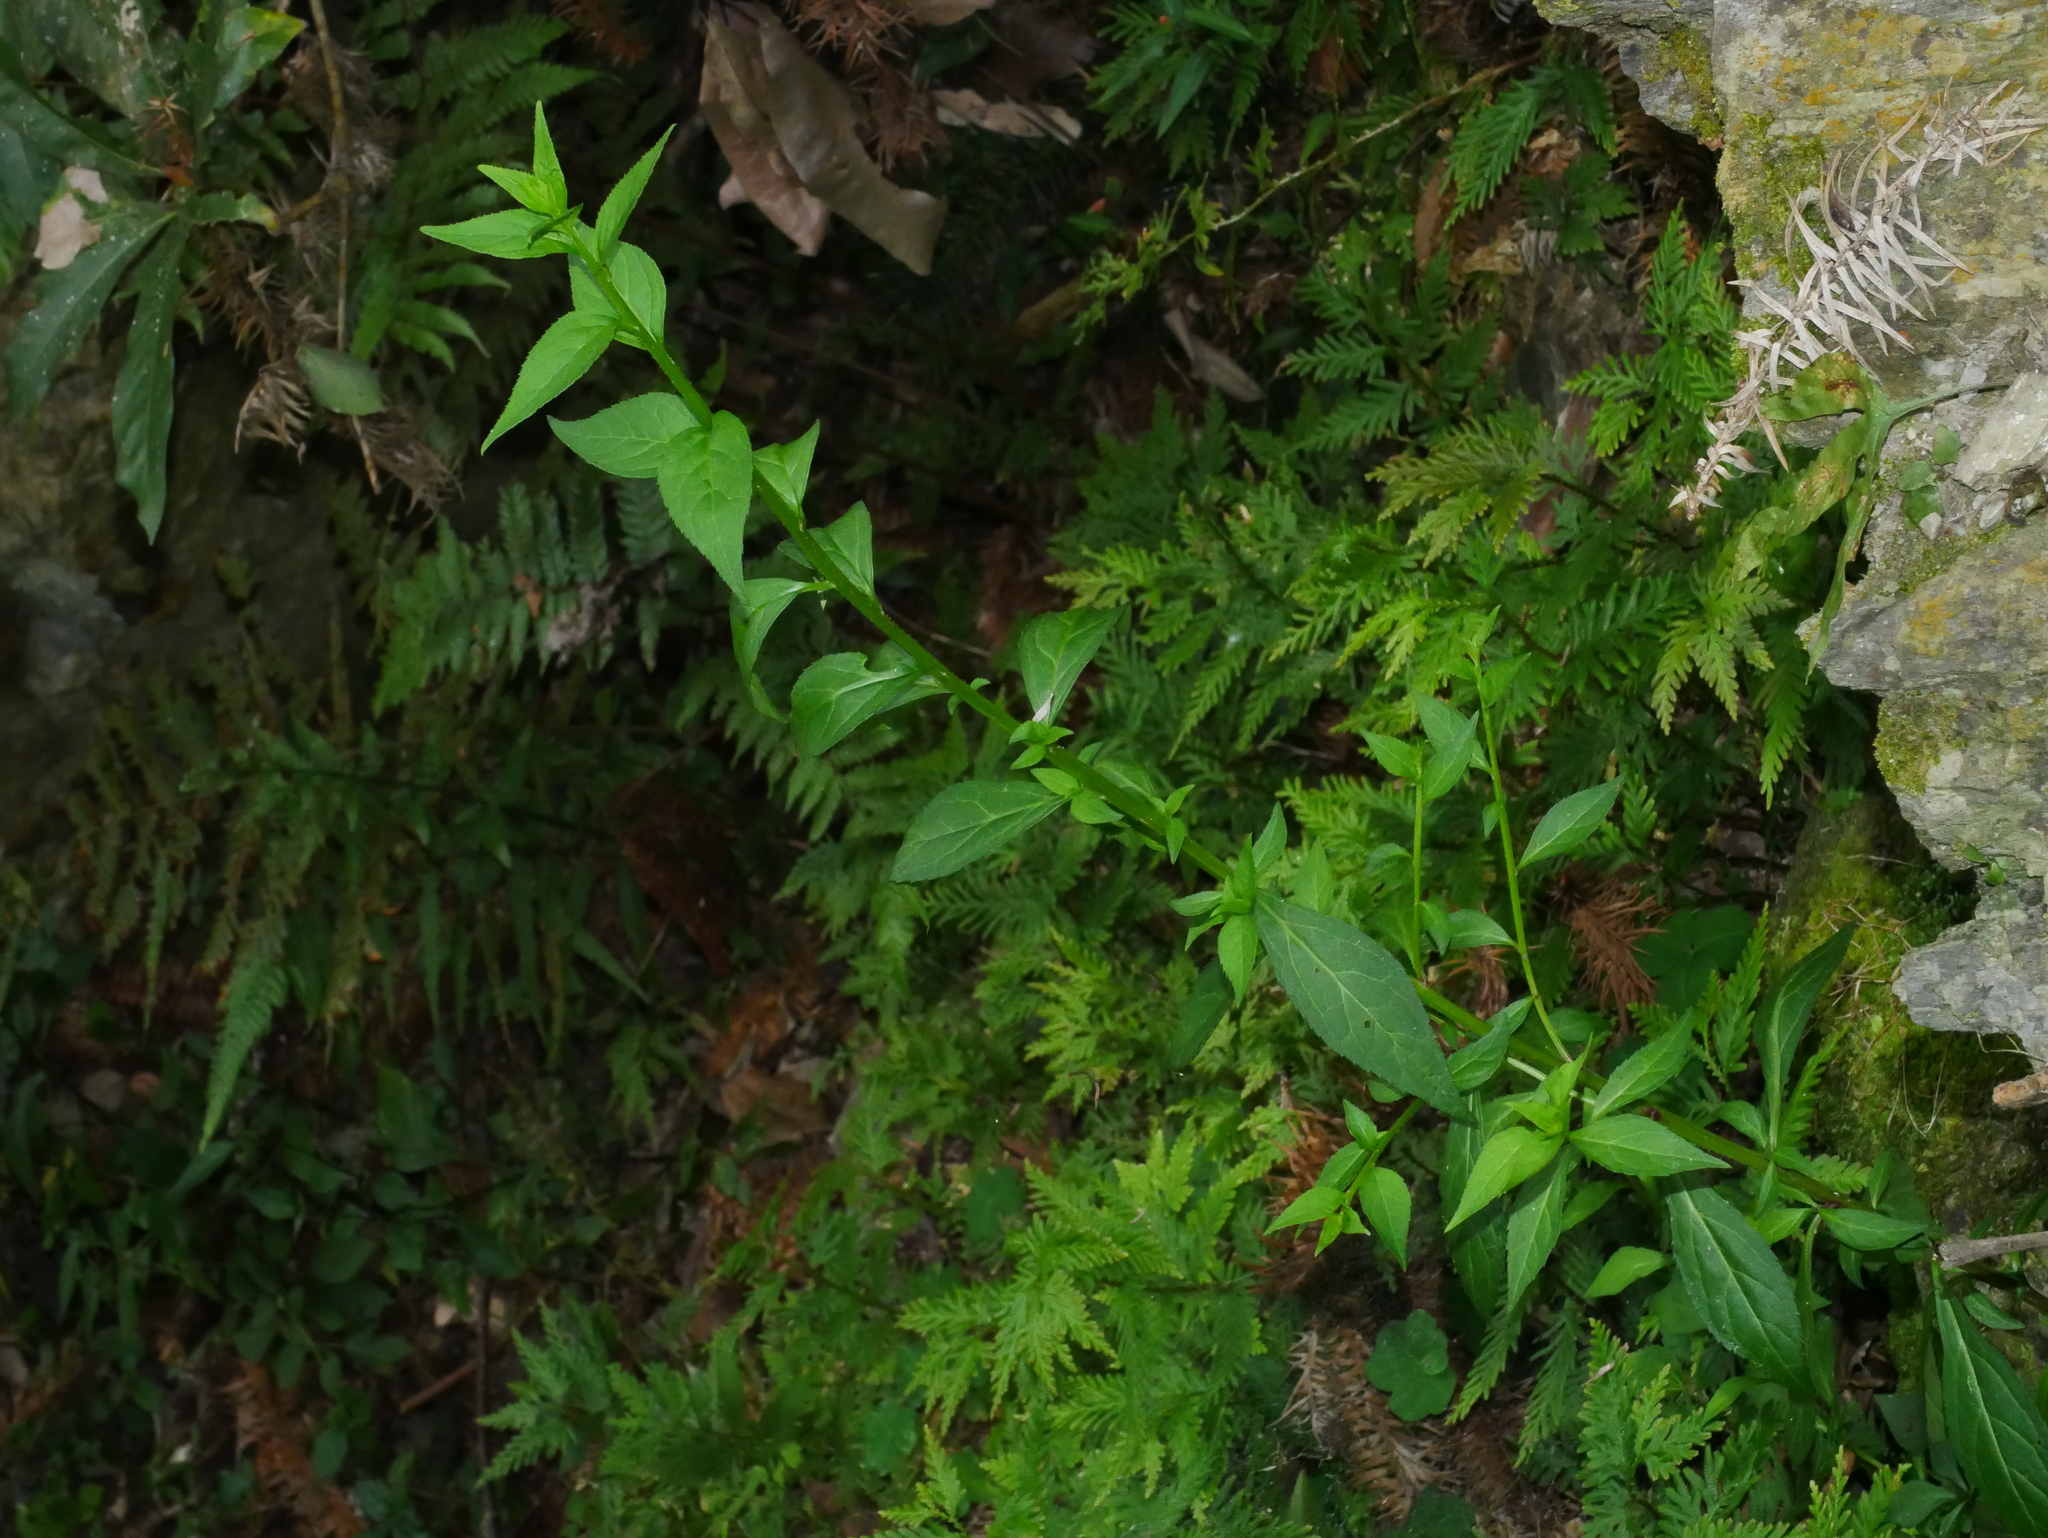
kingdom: Plantae
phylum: Tracheophyta
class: Magnoliopsida
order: Lamiales
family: Plantaginaceae
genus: Veronicastrum
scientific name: Veronicastrum loshanense
